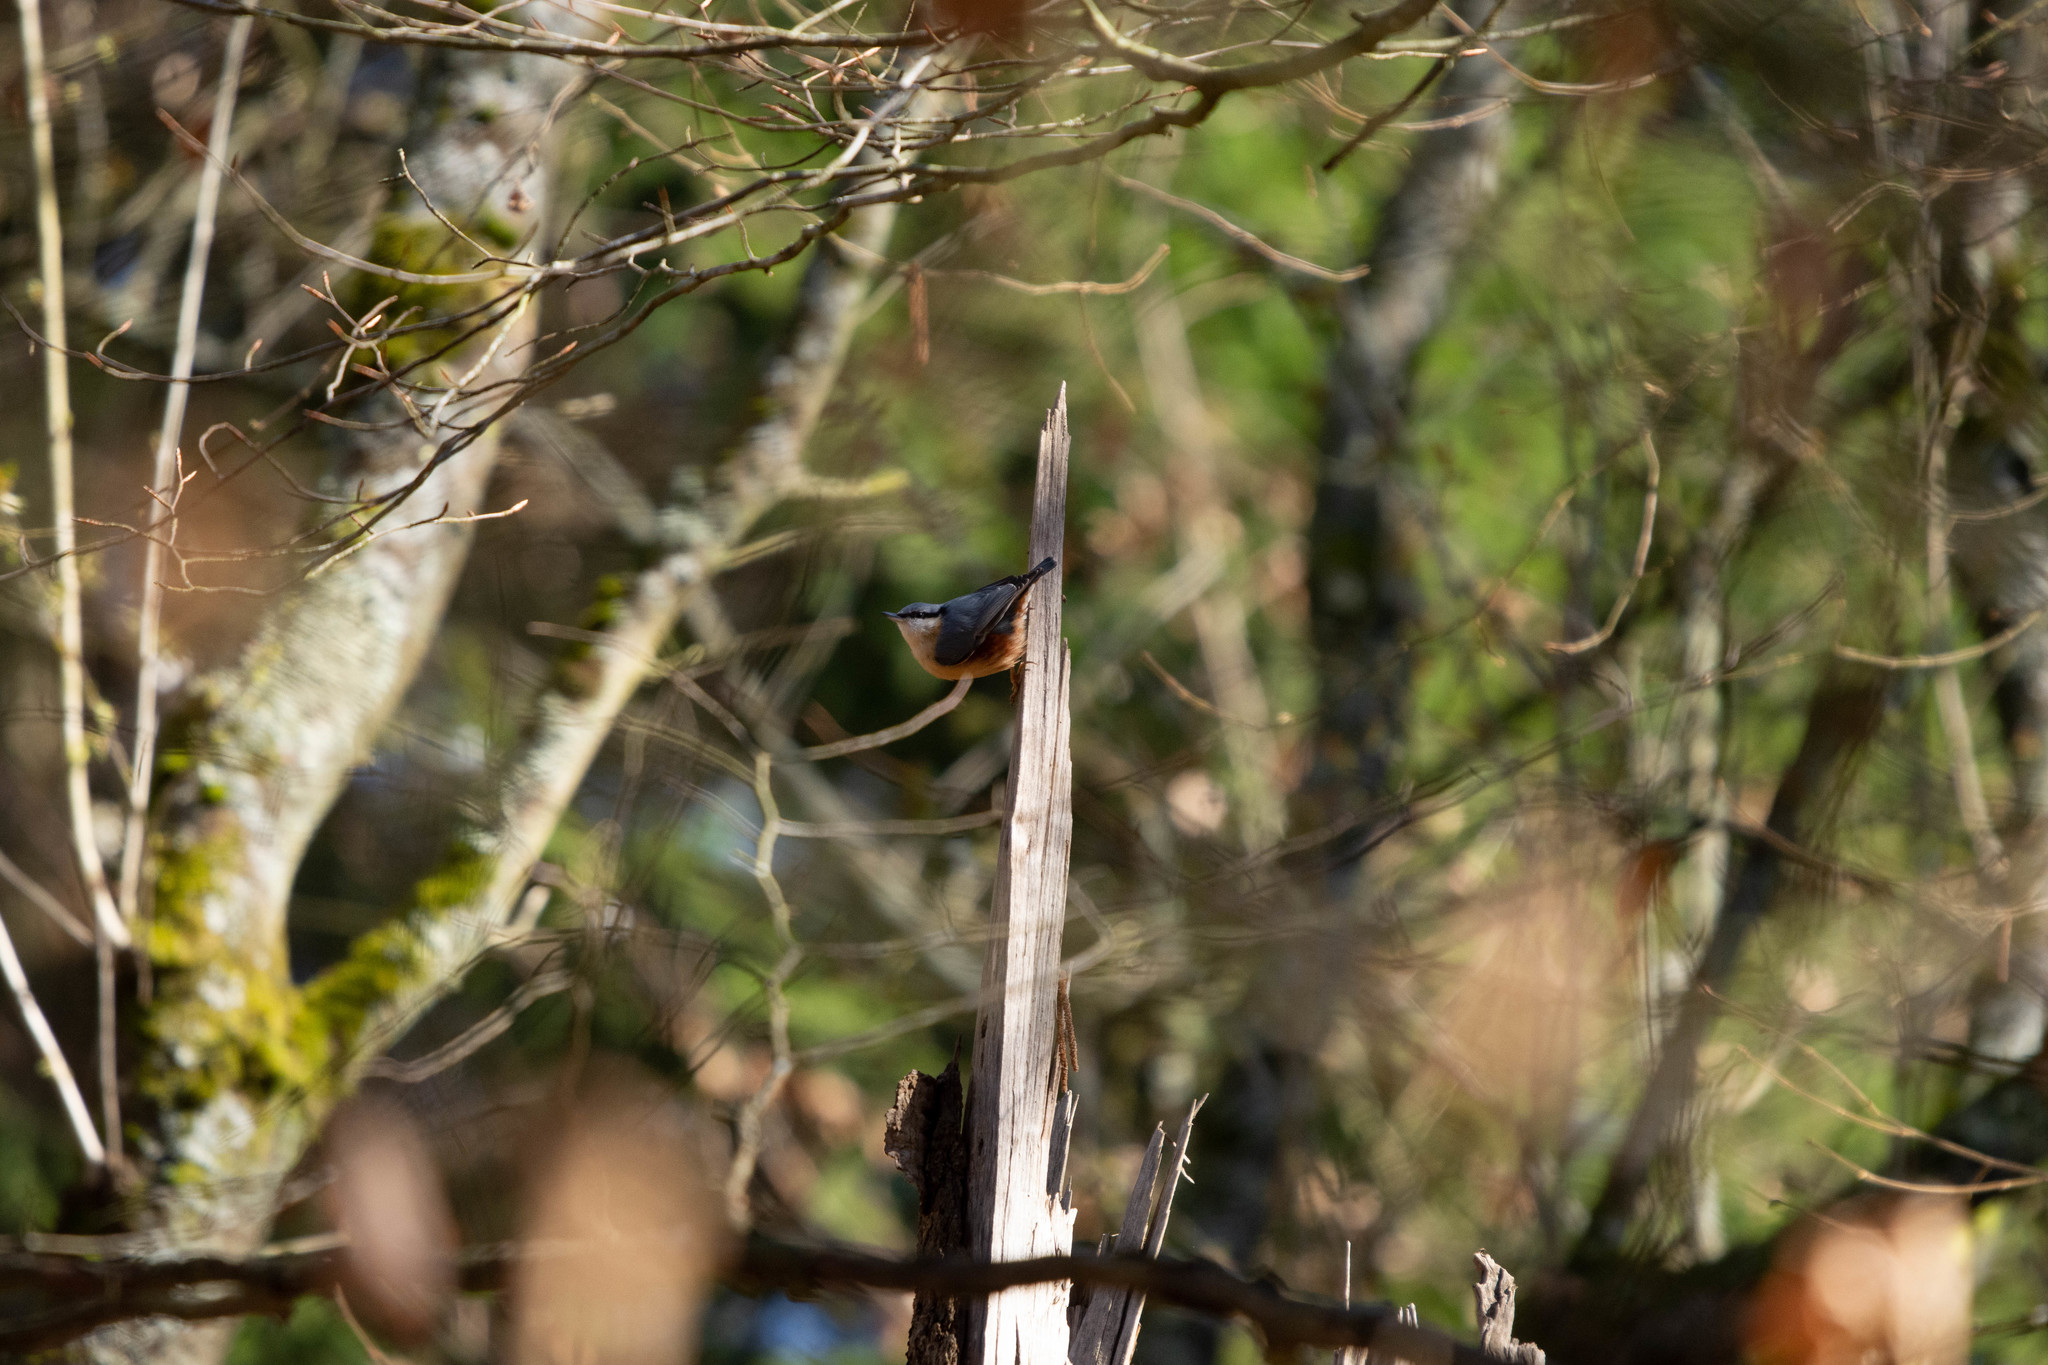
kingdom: Animalia
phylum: Chordata
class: Aves
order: Passeriformes
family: Sittidae
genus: Sitta
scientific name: Sitta europaea
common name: Eurasian nuthatch
